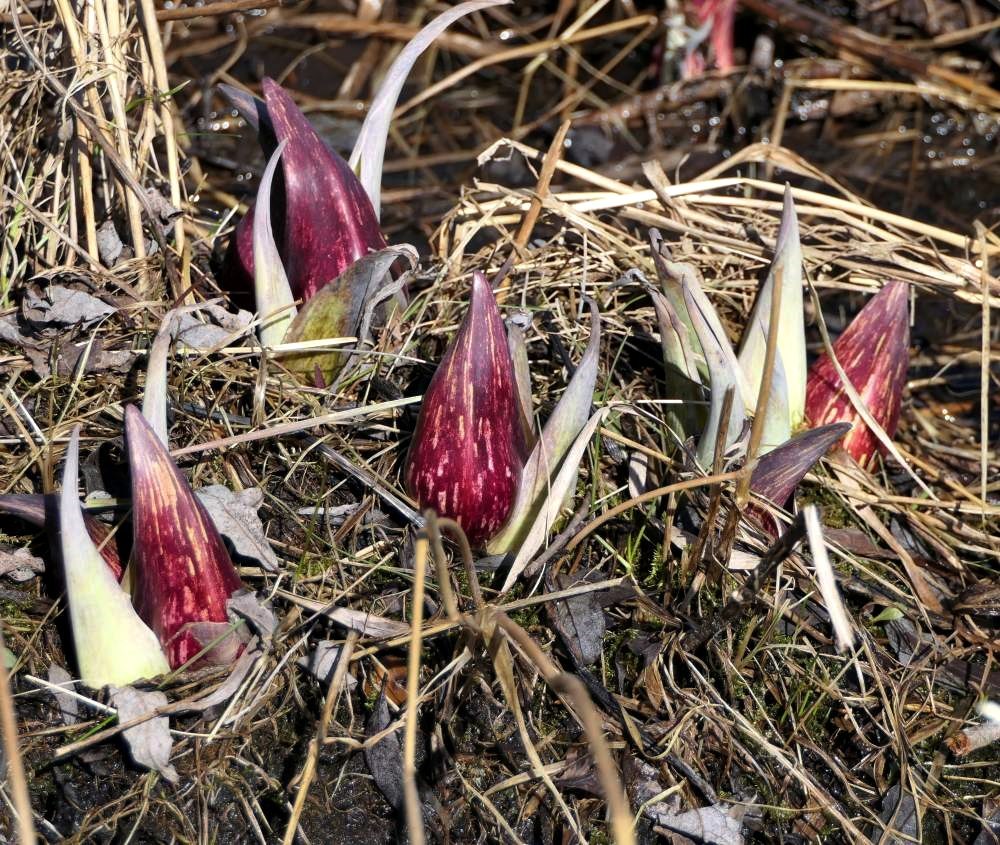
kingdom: Plantae
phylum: Tracheophyta
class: Liliopsida
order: Alismatales
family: Araceae
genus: Symplocarpus
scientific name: Symplocarpus foetidus
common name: Eastern skunk cabbage
